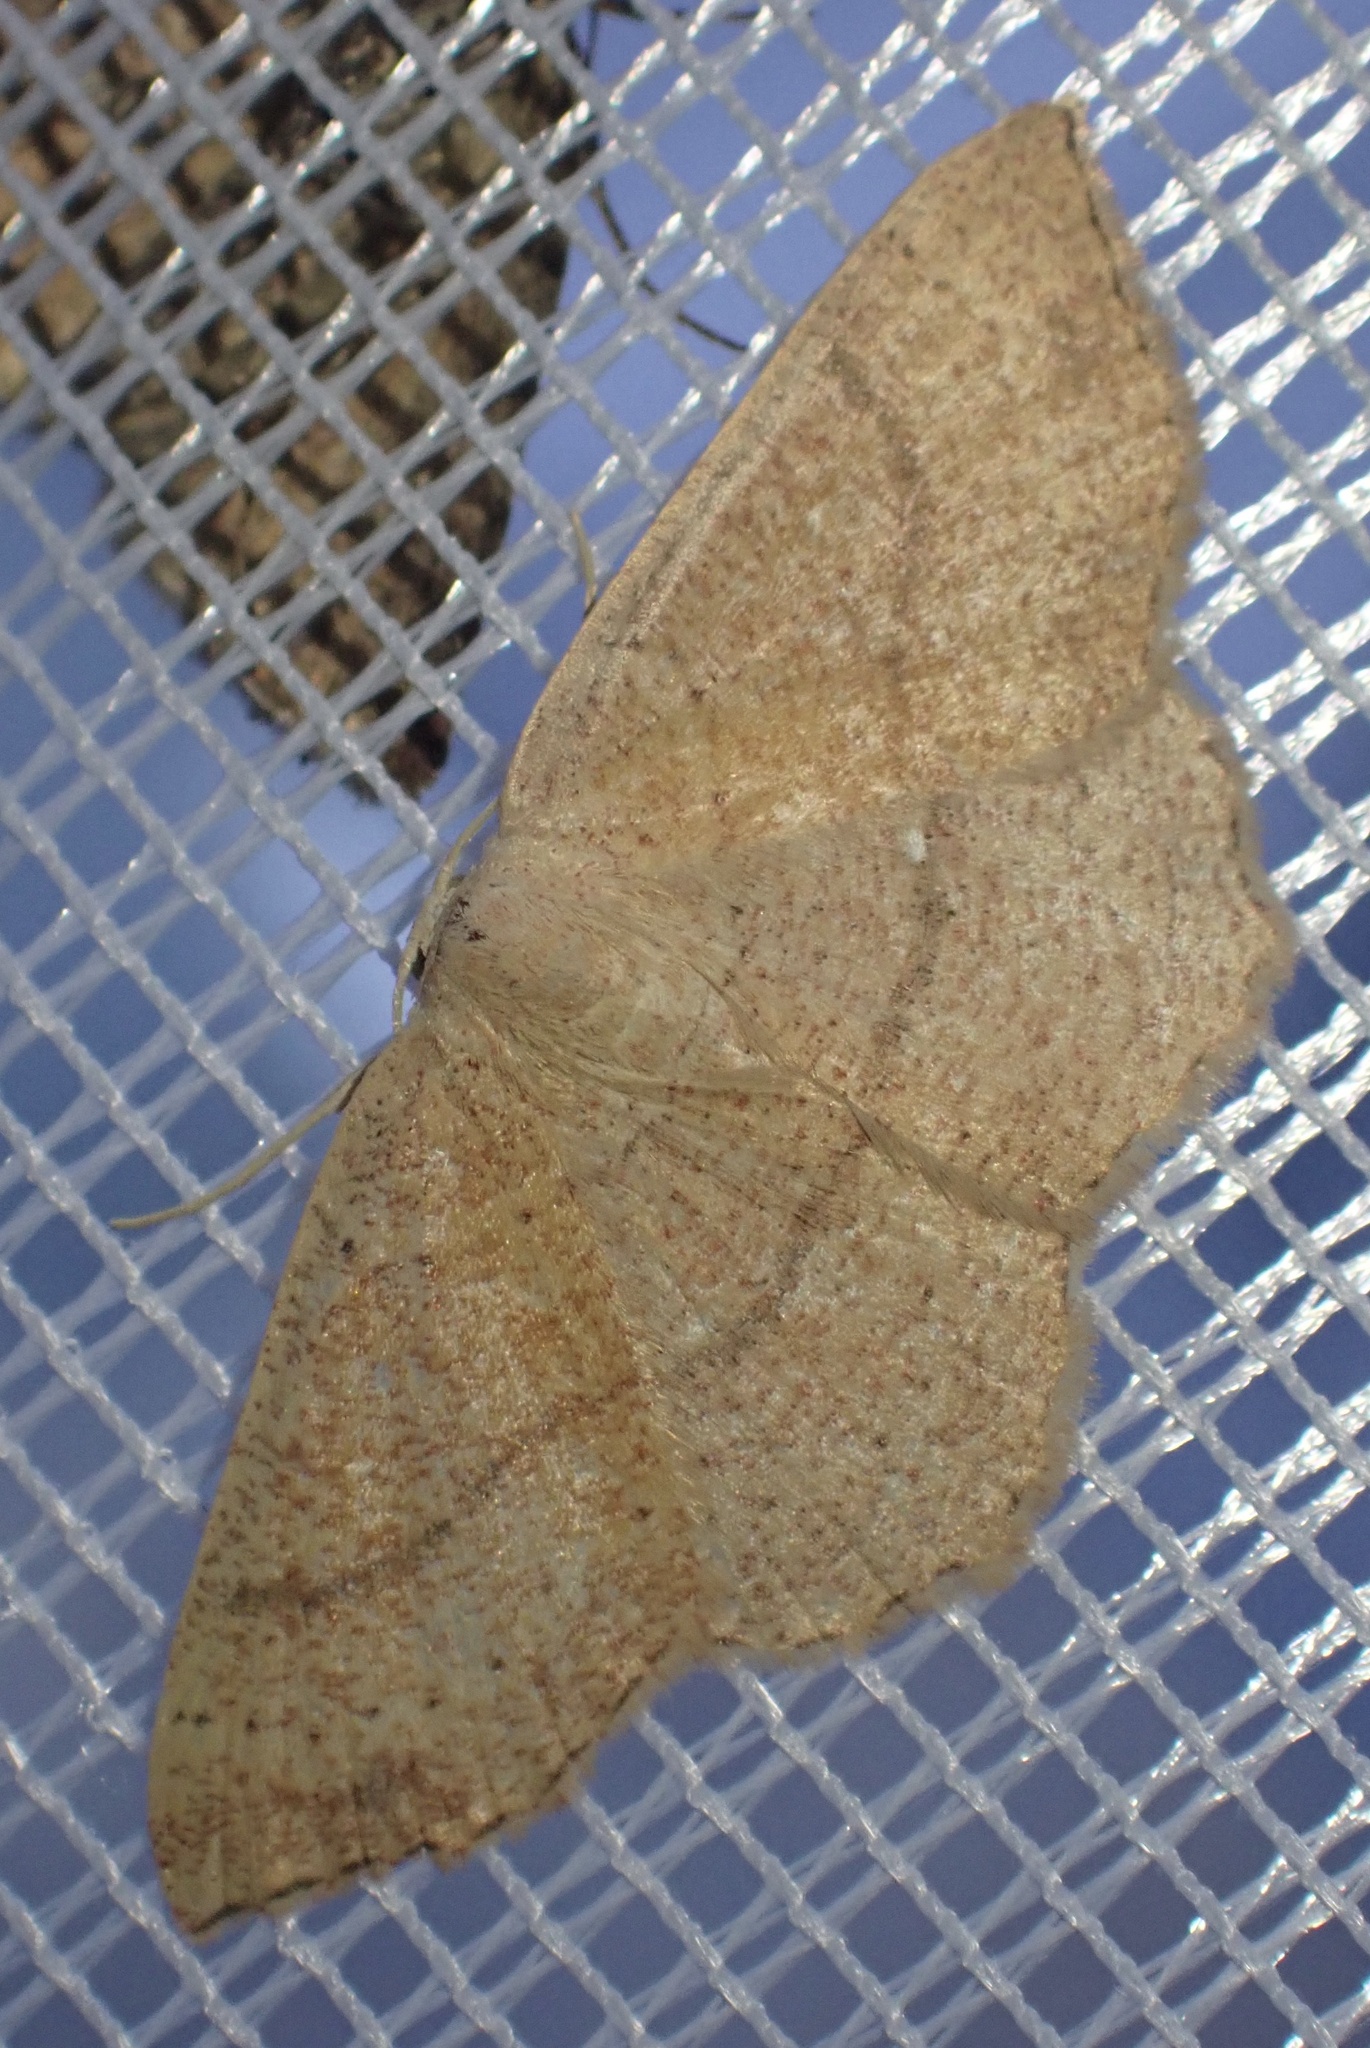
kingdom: Animalia
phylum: Arthropoda
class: Insecta
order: Lepidoptera
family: Geometridae
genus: Cyclophora
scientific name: Cyclophora ruficiliaria
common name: Jersey mocha
